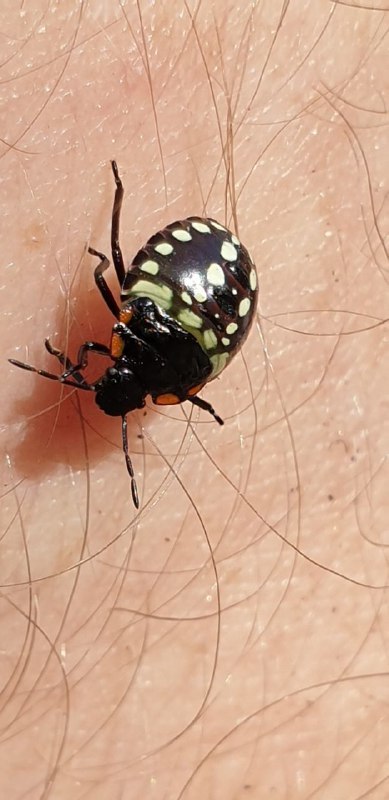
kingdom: Animalia
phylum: Arthropoda
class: Insecta
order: Hemiptera
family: Pentatomidae
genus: Nezara
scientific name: Nezara viridula
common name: Southern green stink bug
